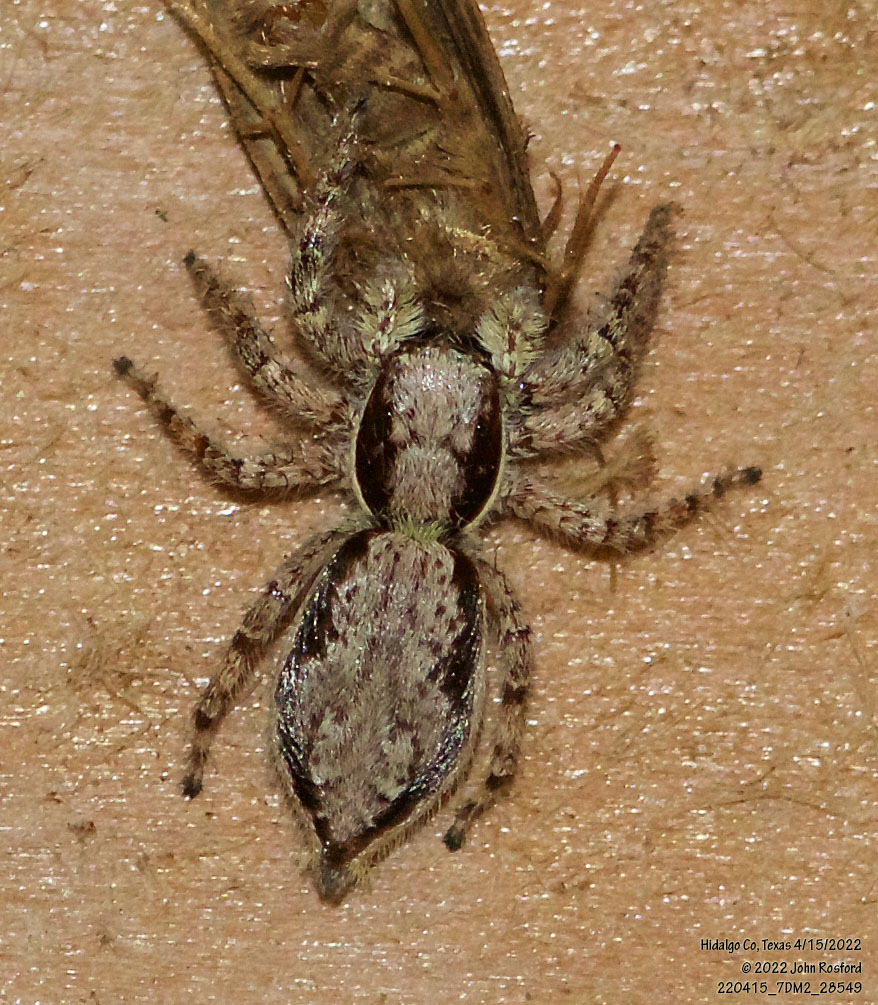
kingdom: Animalia
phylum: Arthropoda
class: Arachnida
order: Araneae
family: Salticidae
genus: Menemerus
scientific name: Menemerus bivittatus
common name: Gray wall jumper
